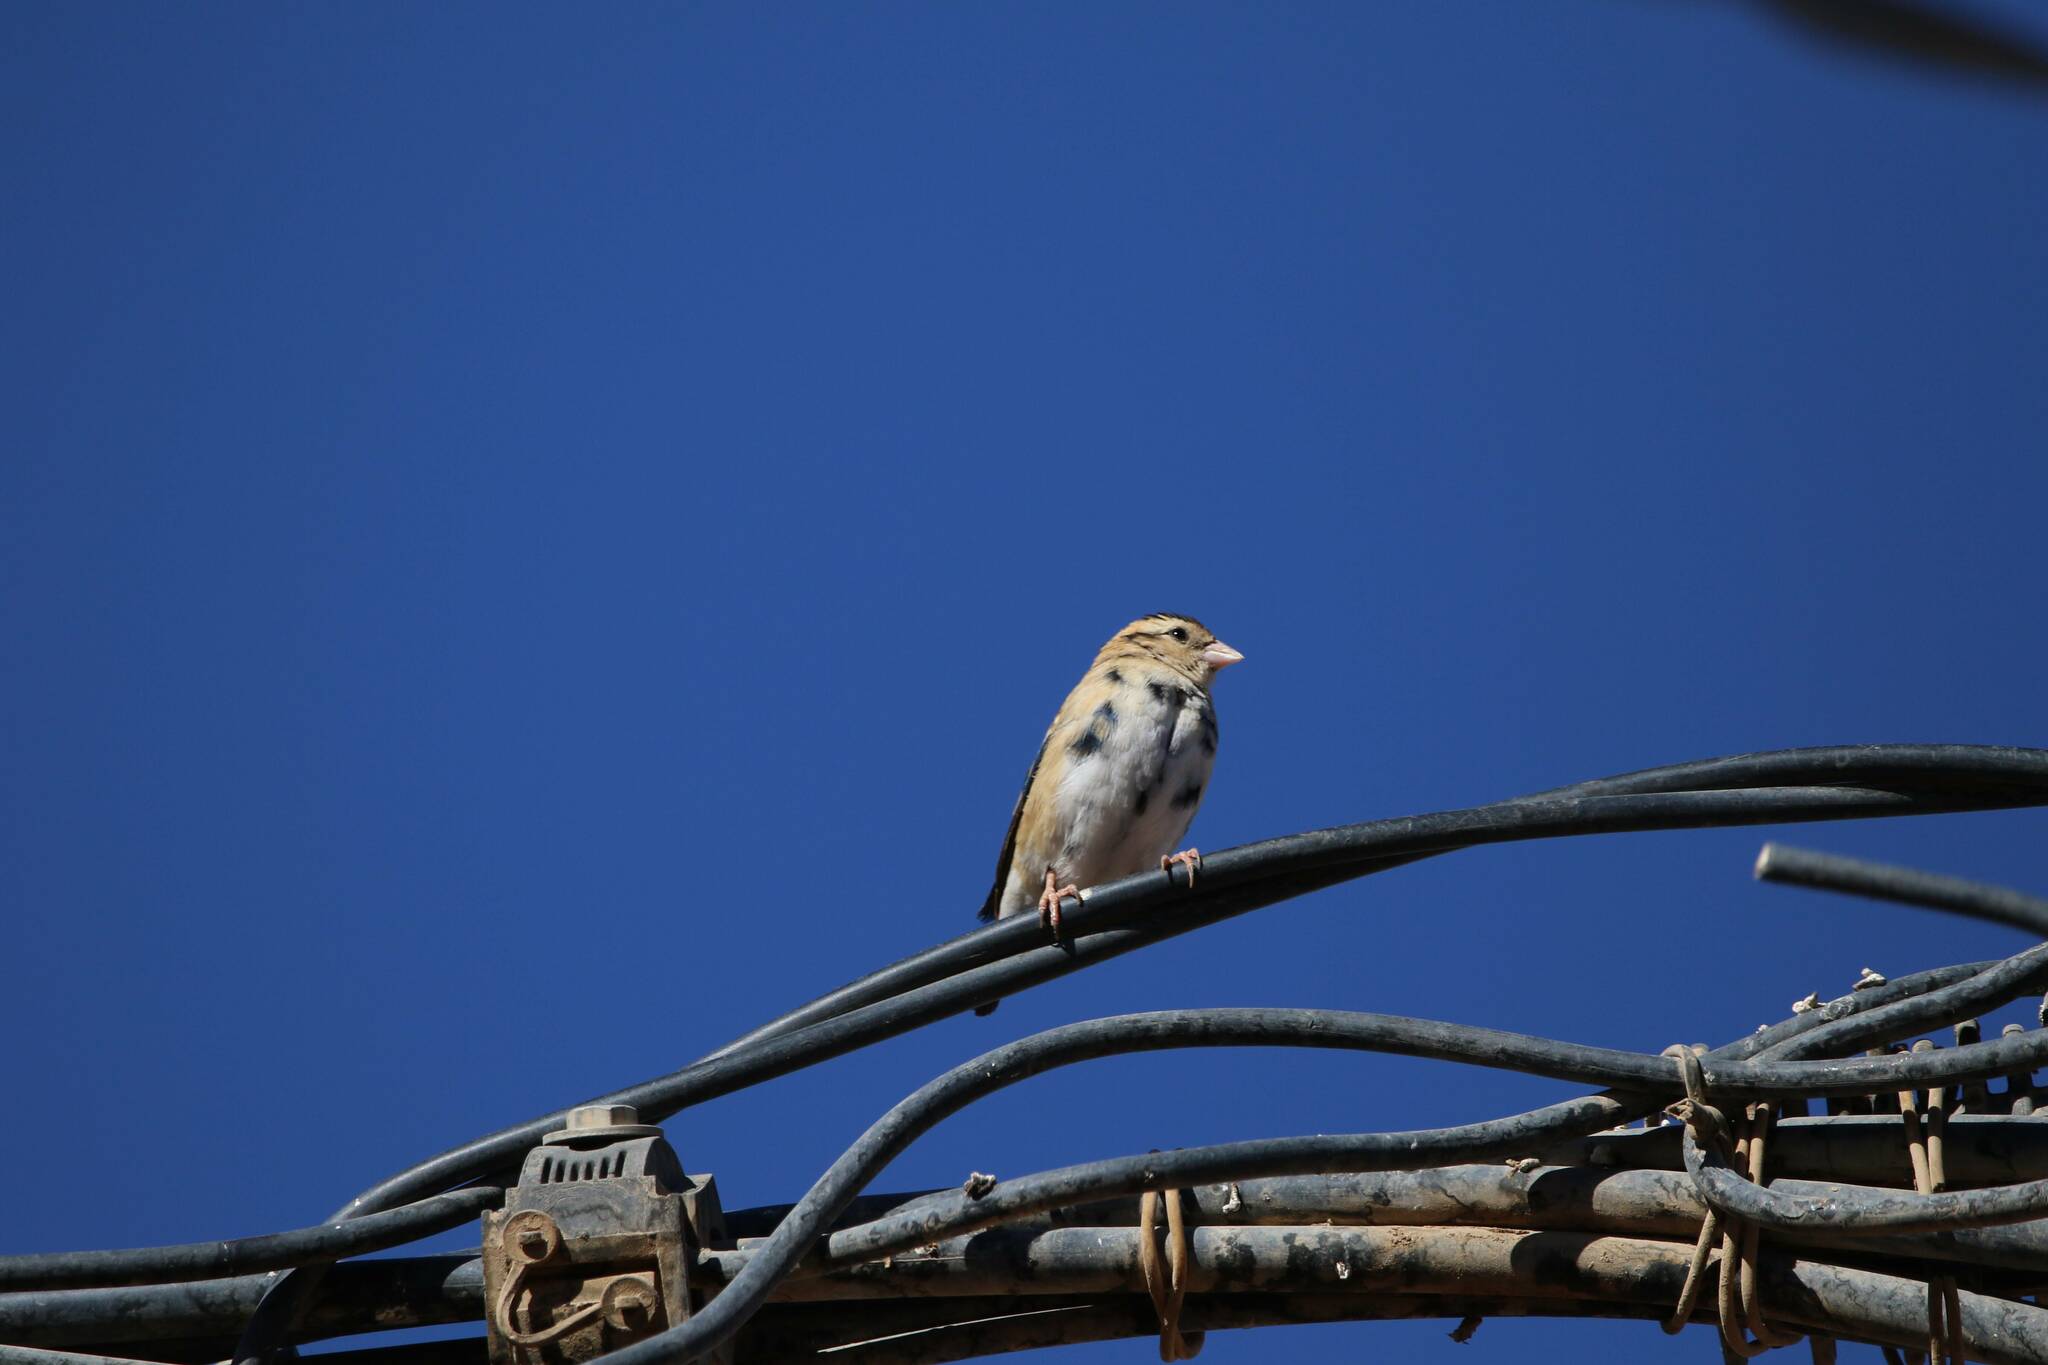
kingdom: Animalia
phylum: Chordata
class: Aves
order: Passeriformes
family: Viduidae
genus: Vidua
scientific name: Vidua chalybeata
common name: Village indigobird
